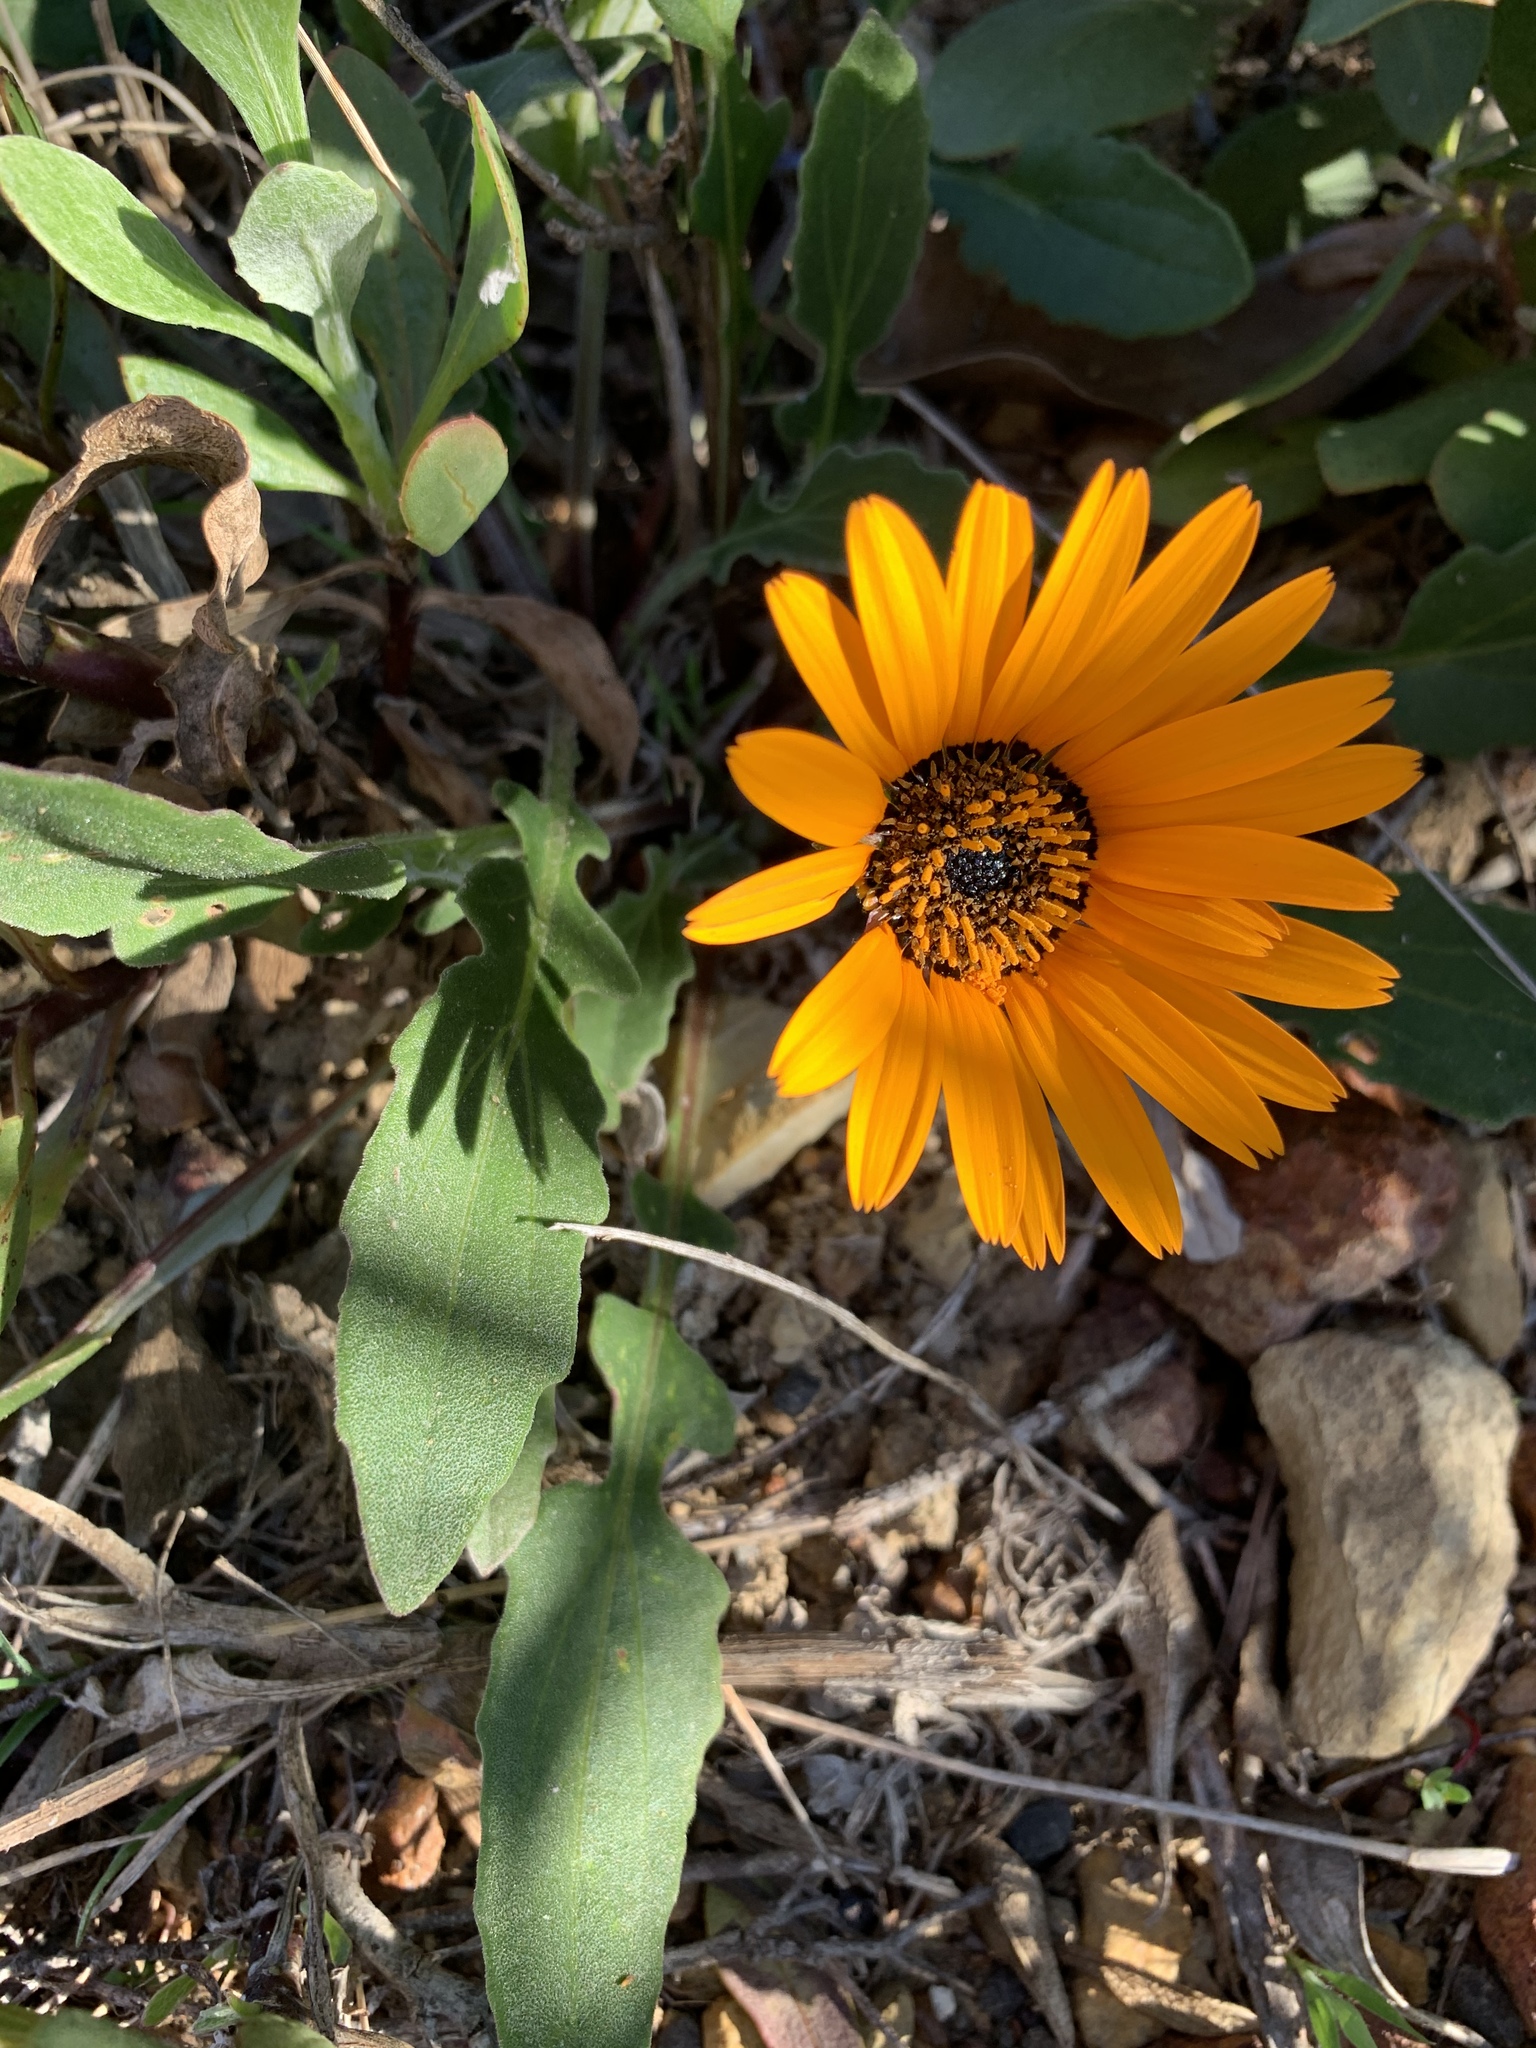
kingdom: Plantae
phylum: Tracheophyta
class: Magnoliopsida
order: Asterales
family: Asteraceae
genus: Arctotis
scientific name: Arctotis acaulis
